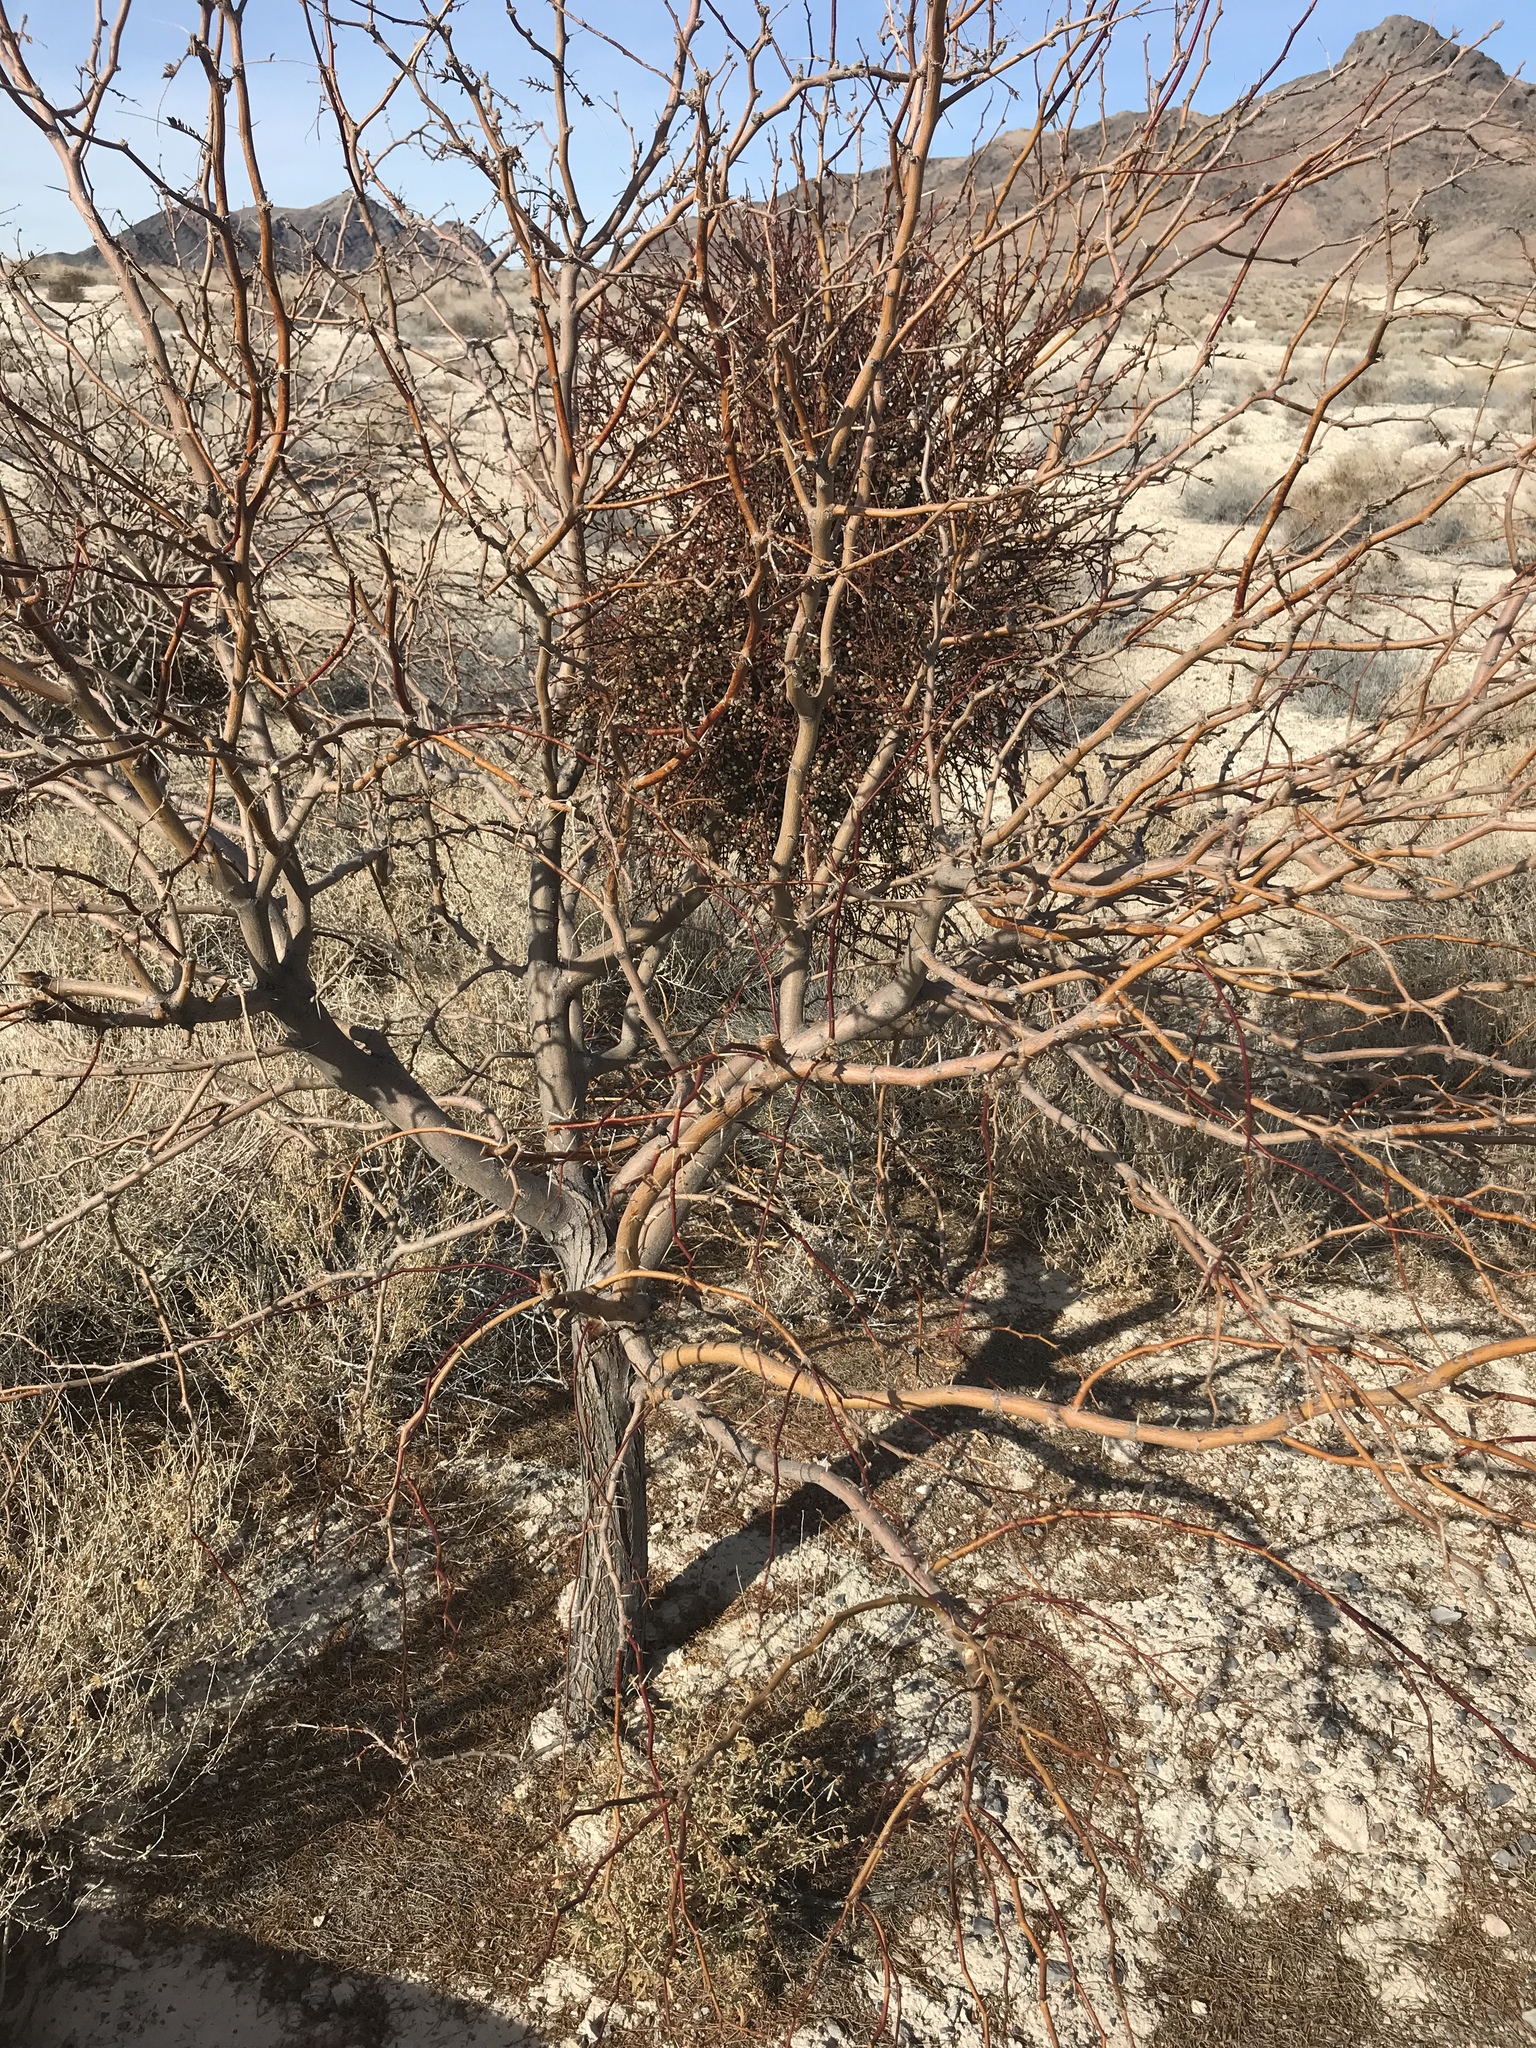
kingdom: Plantae
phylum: Tracheophyta
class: Magnoliopsida
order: Santalales
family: Viscaceae
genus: Phoradendron
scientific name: Phoradendron californicum
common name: Acacia mistletoe
